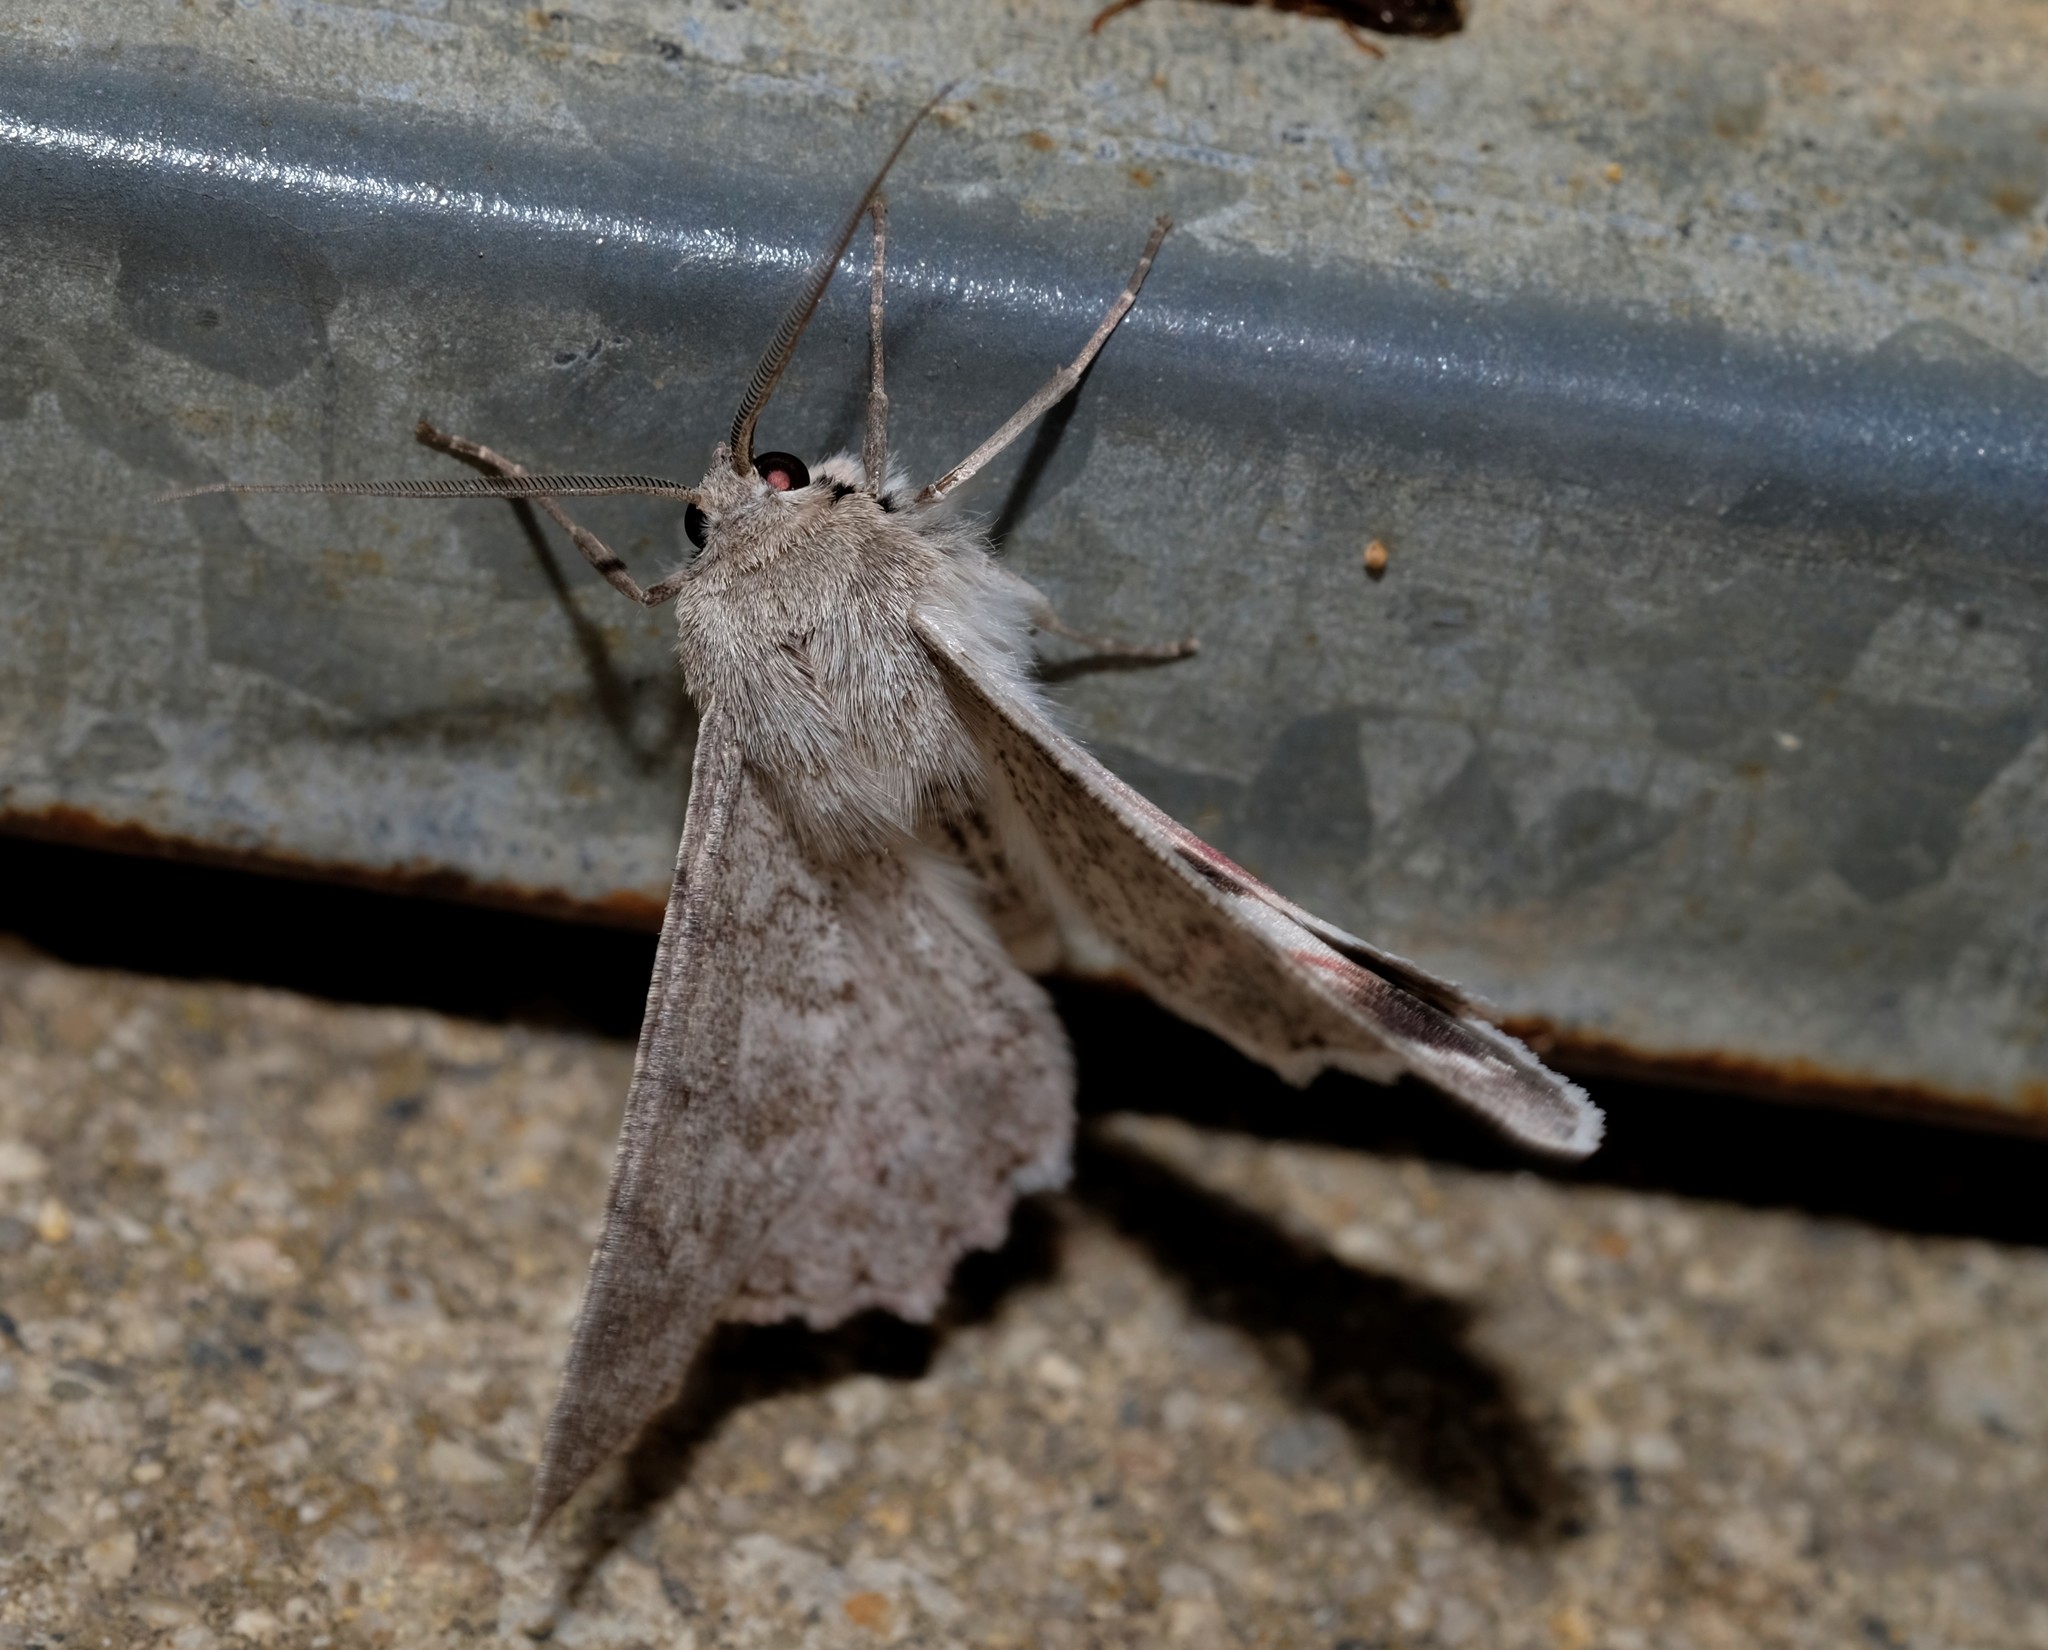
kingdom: Animalia
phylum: Arthropoda
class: Insecta
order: Lepidoptera
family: Geometridae
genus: Crypsiphona
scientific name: Crypsiphona ocultaria
